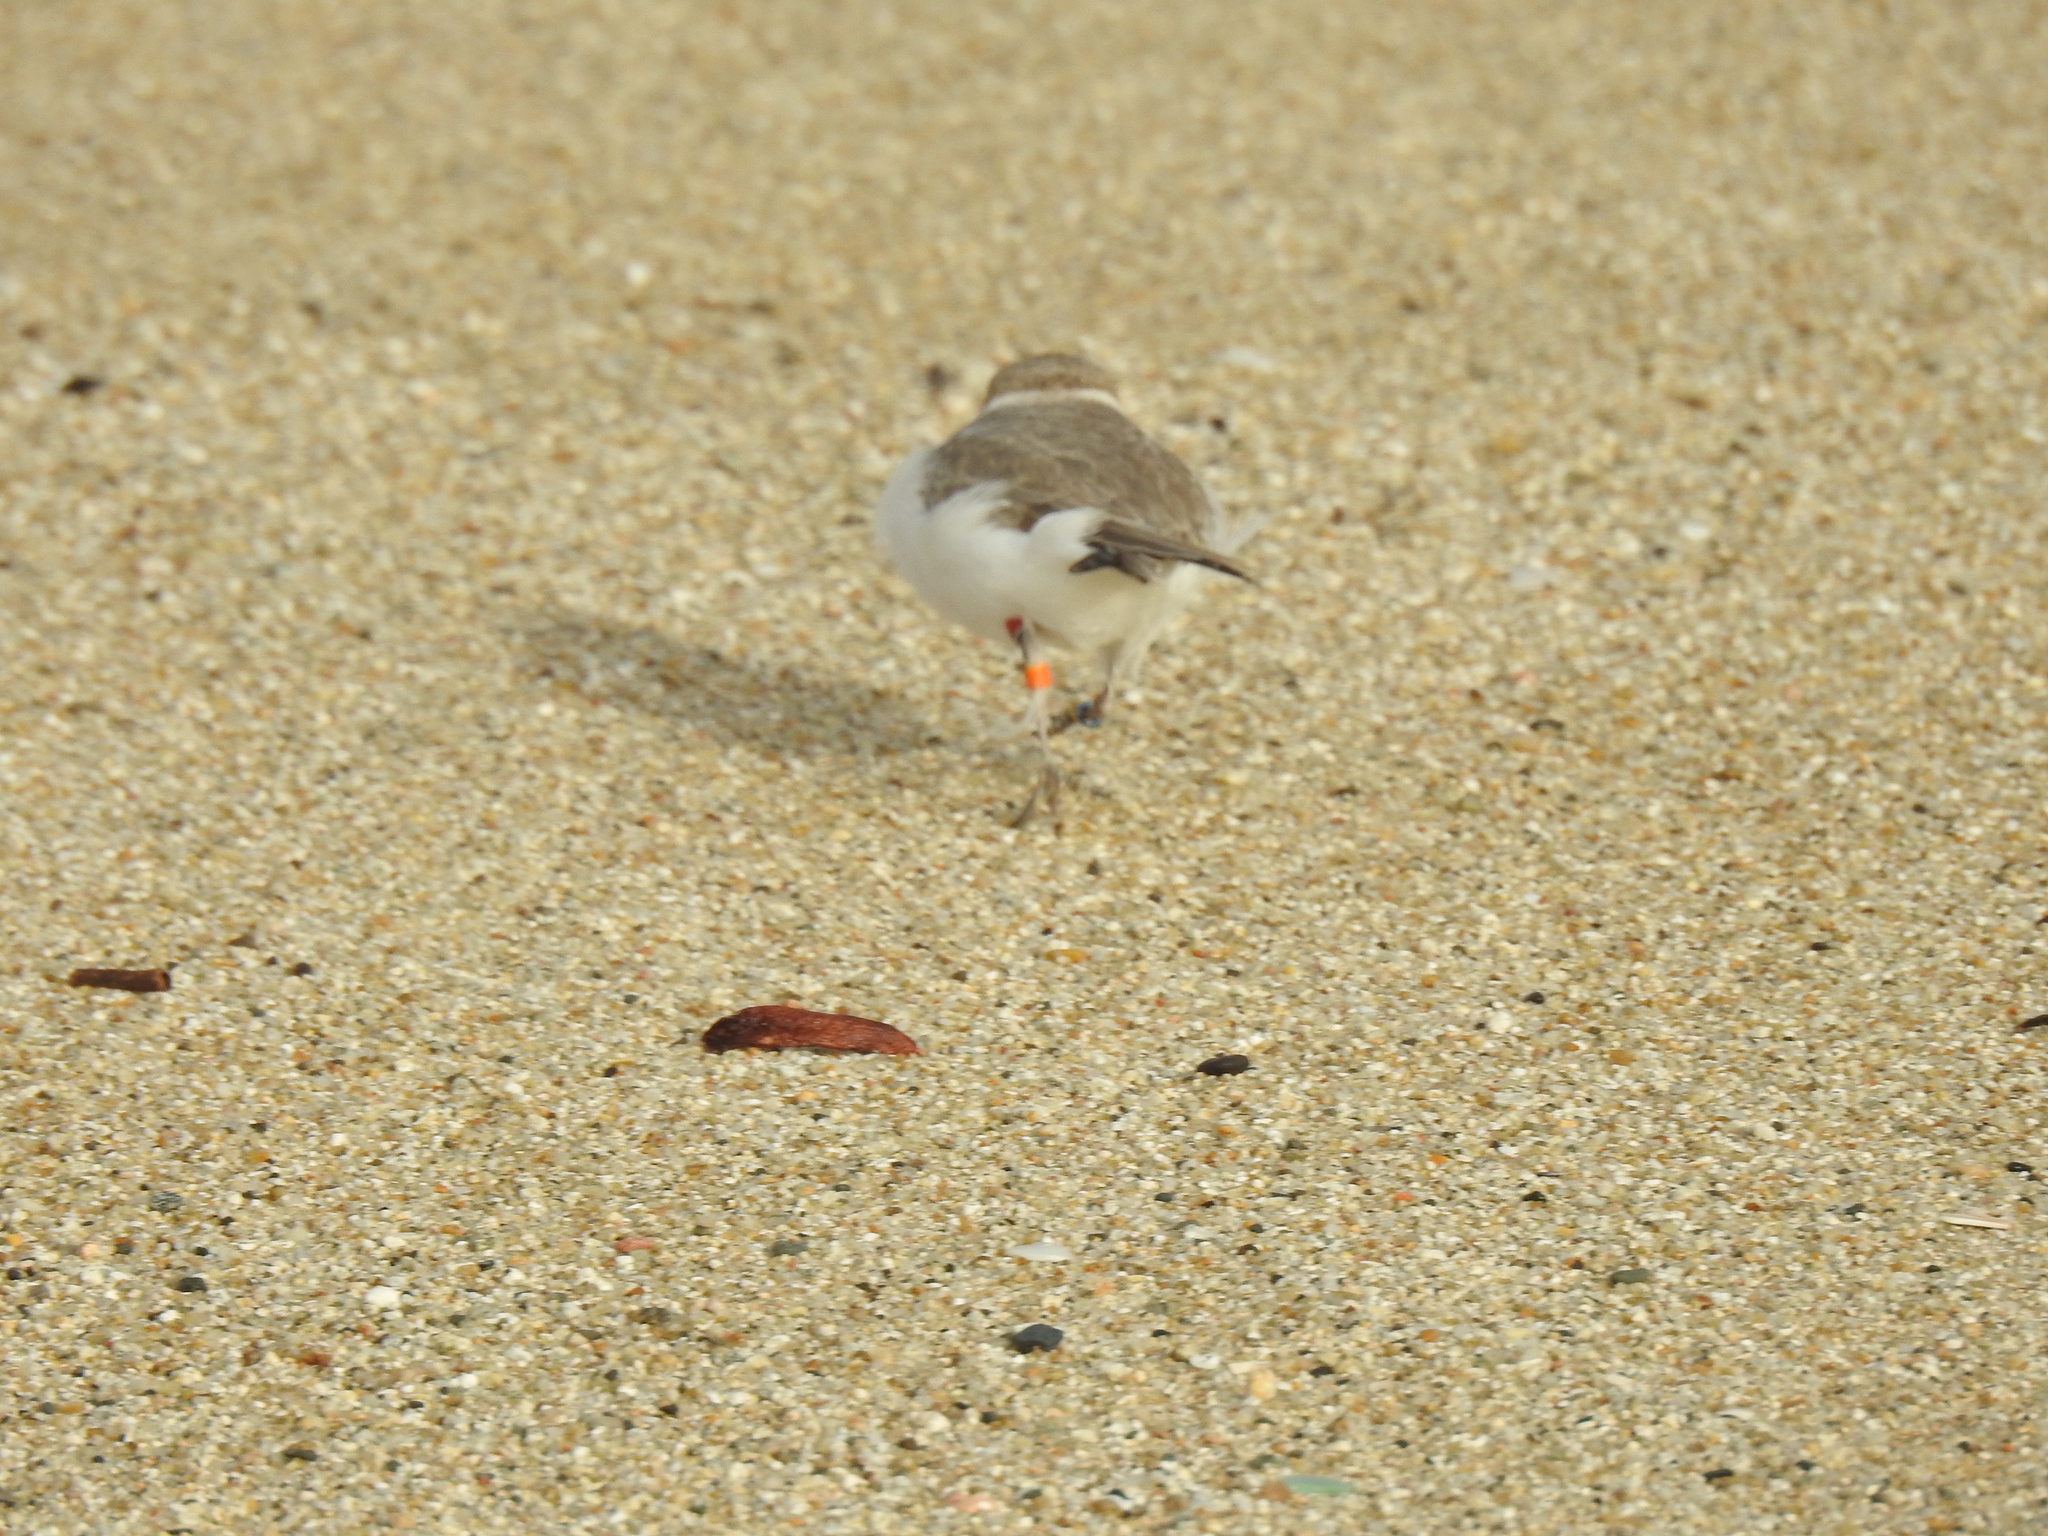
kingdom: Animalia
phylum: Chordata
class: Aves
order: Charadriiformes
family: Charadriidae
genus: Anarhynchus
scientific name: Anarhynchus
